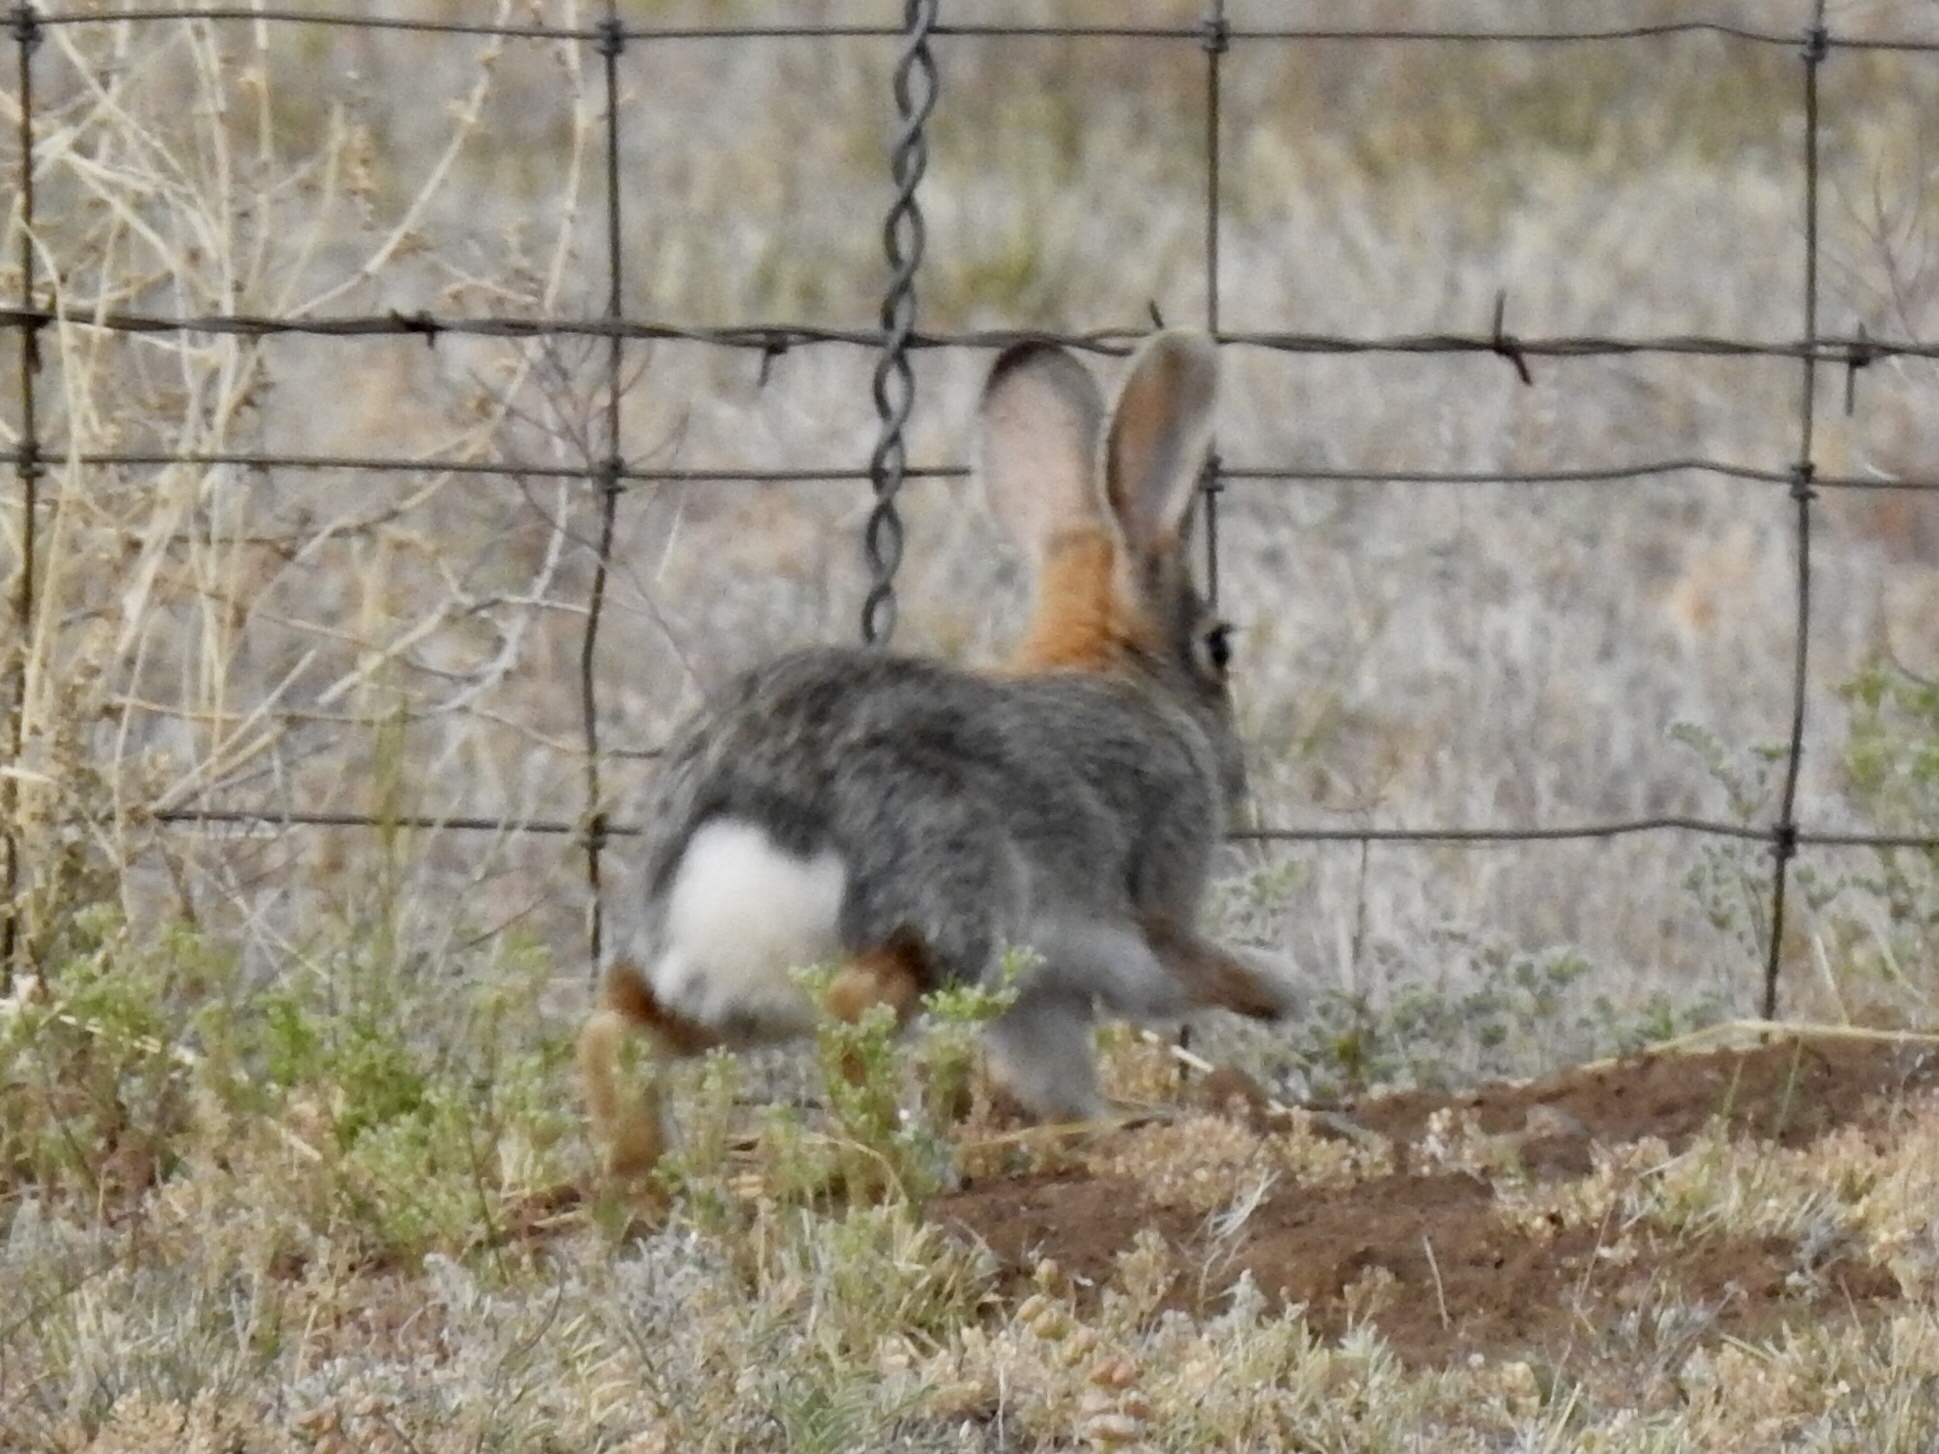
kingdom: Animalia
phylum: Chordata
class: Mammalia
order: Lagomorpha
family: Leporidae
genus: Sylvilagus
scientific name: Sylvilagus audubonii
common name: Desert cottontail
